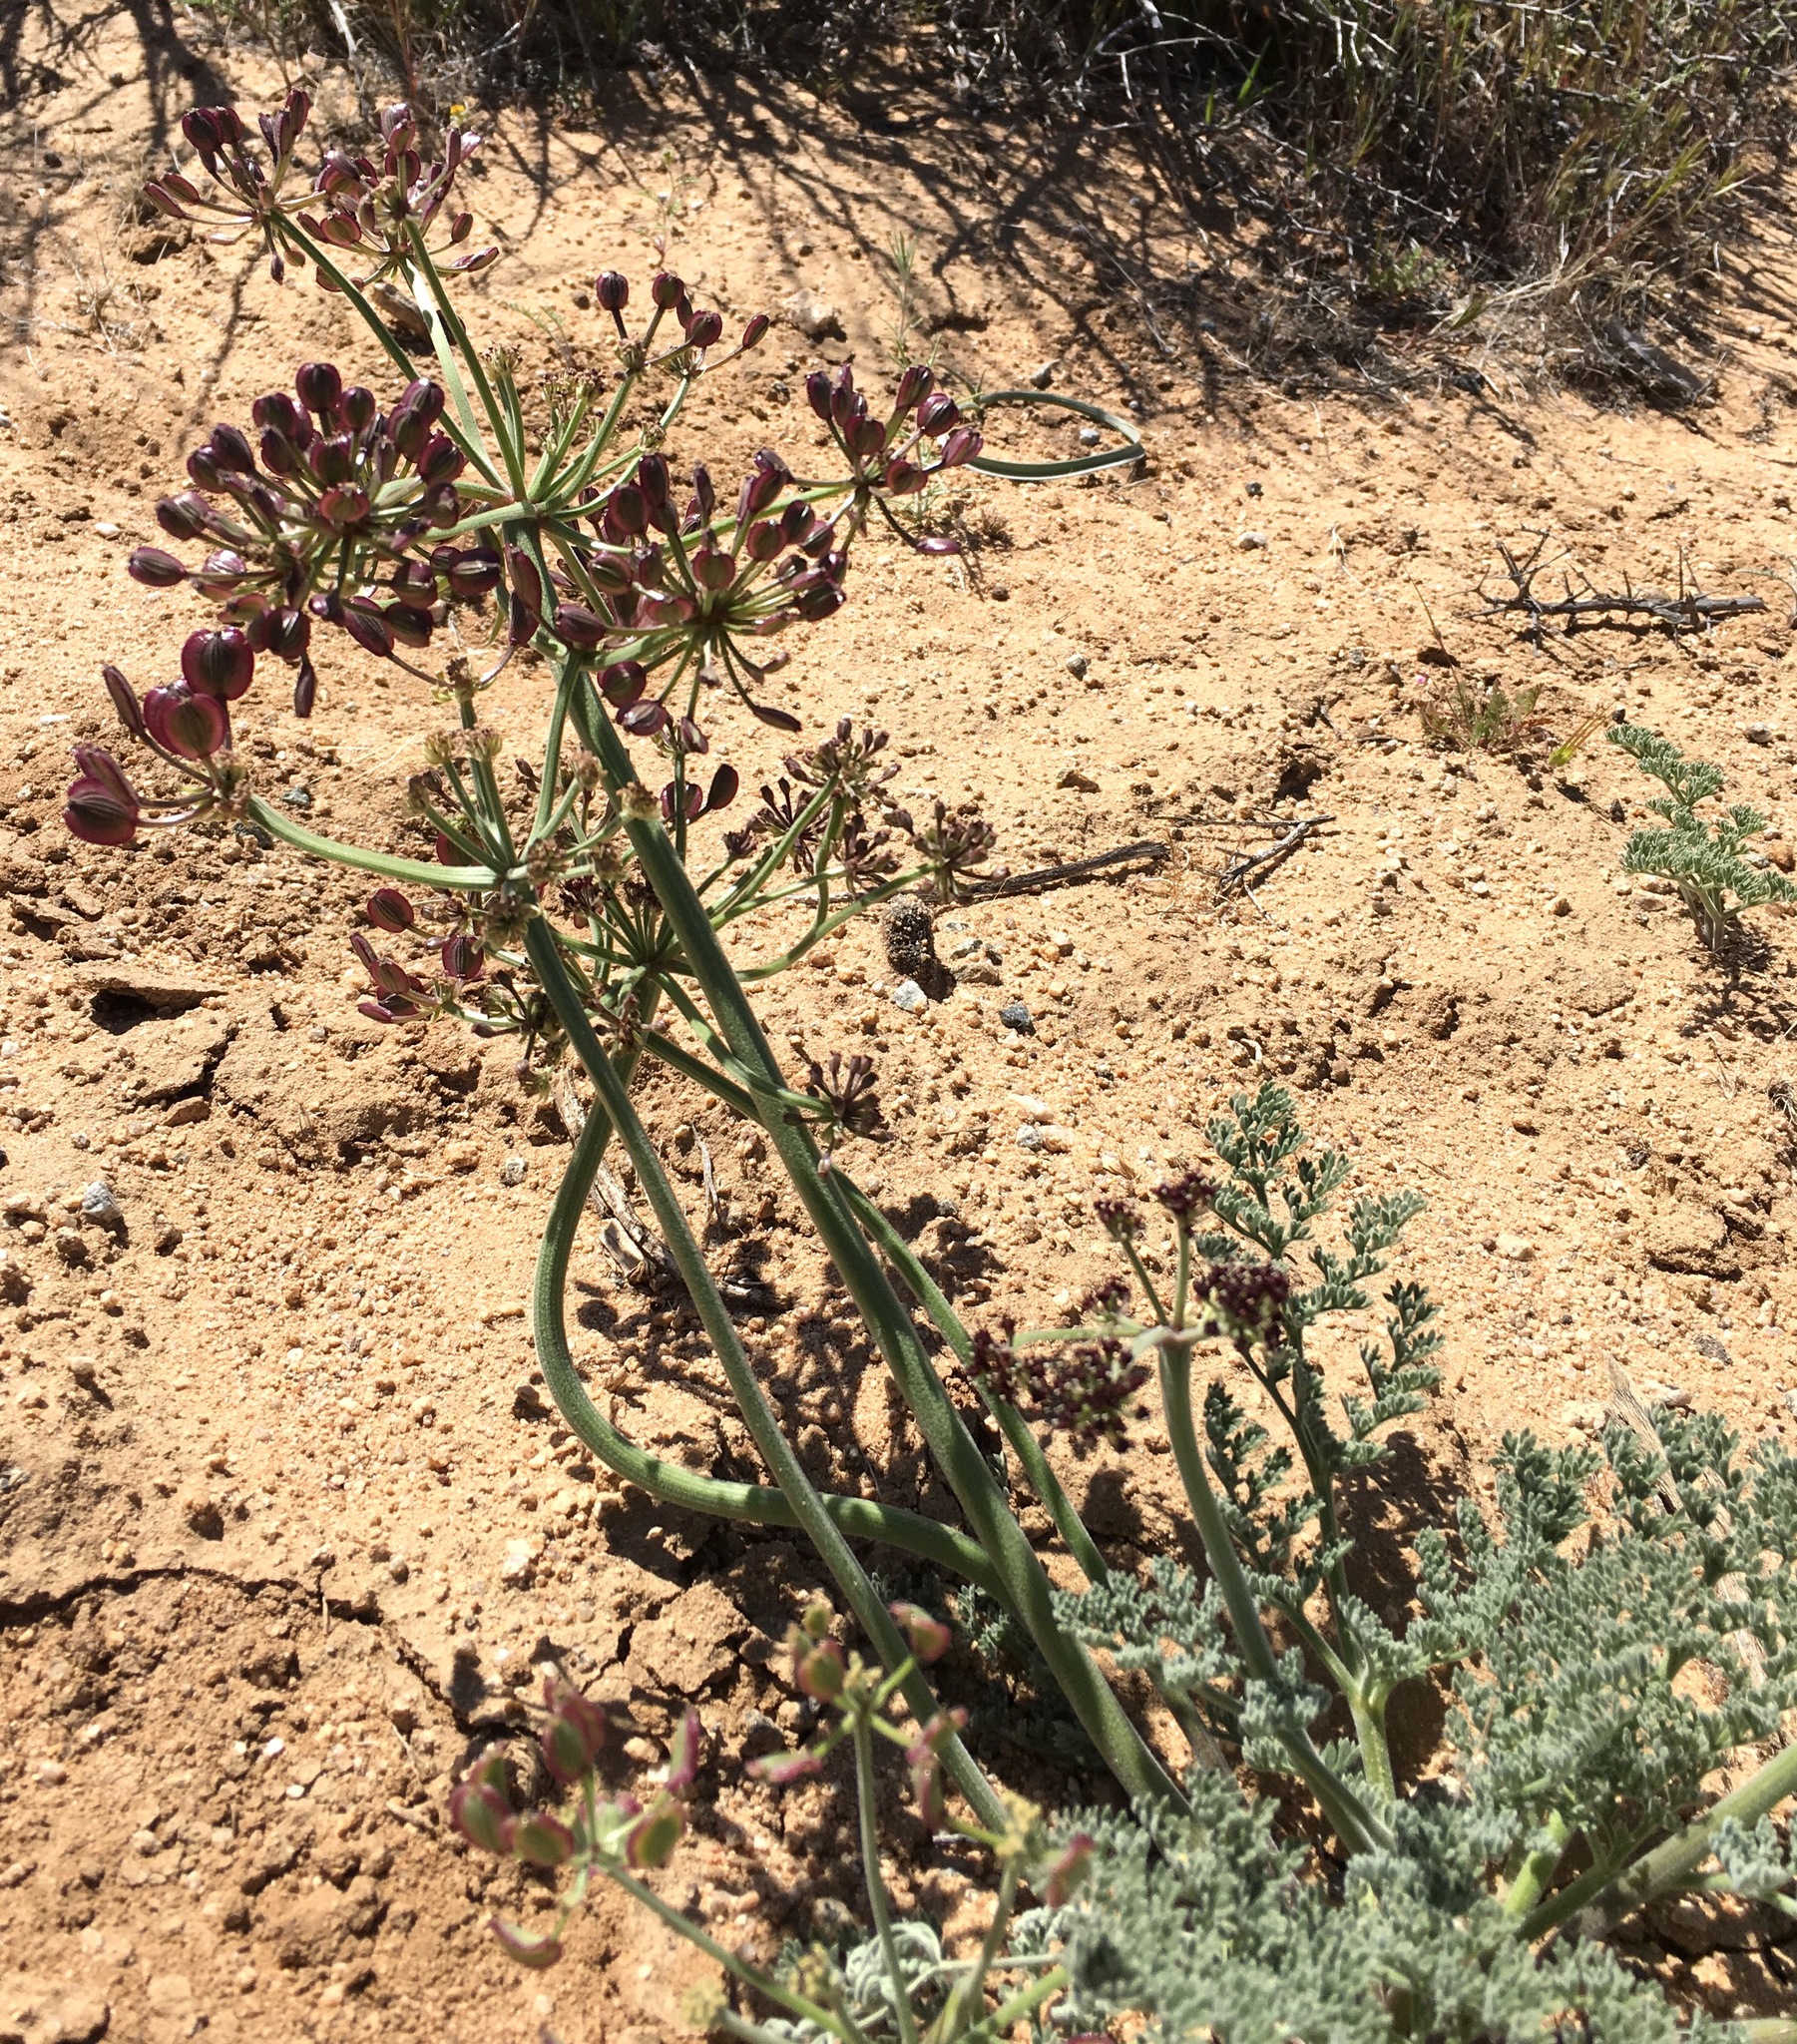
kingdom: Plantae
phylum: Tracheophyta
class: Magnoliopsida
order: Apiales
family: Apiaceae
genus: Lomatium
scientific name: Lomatium mohavense
